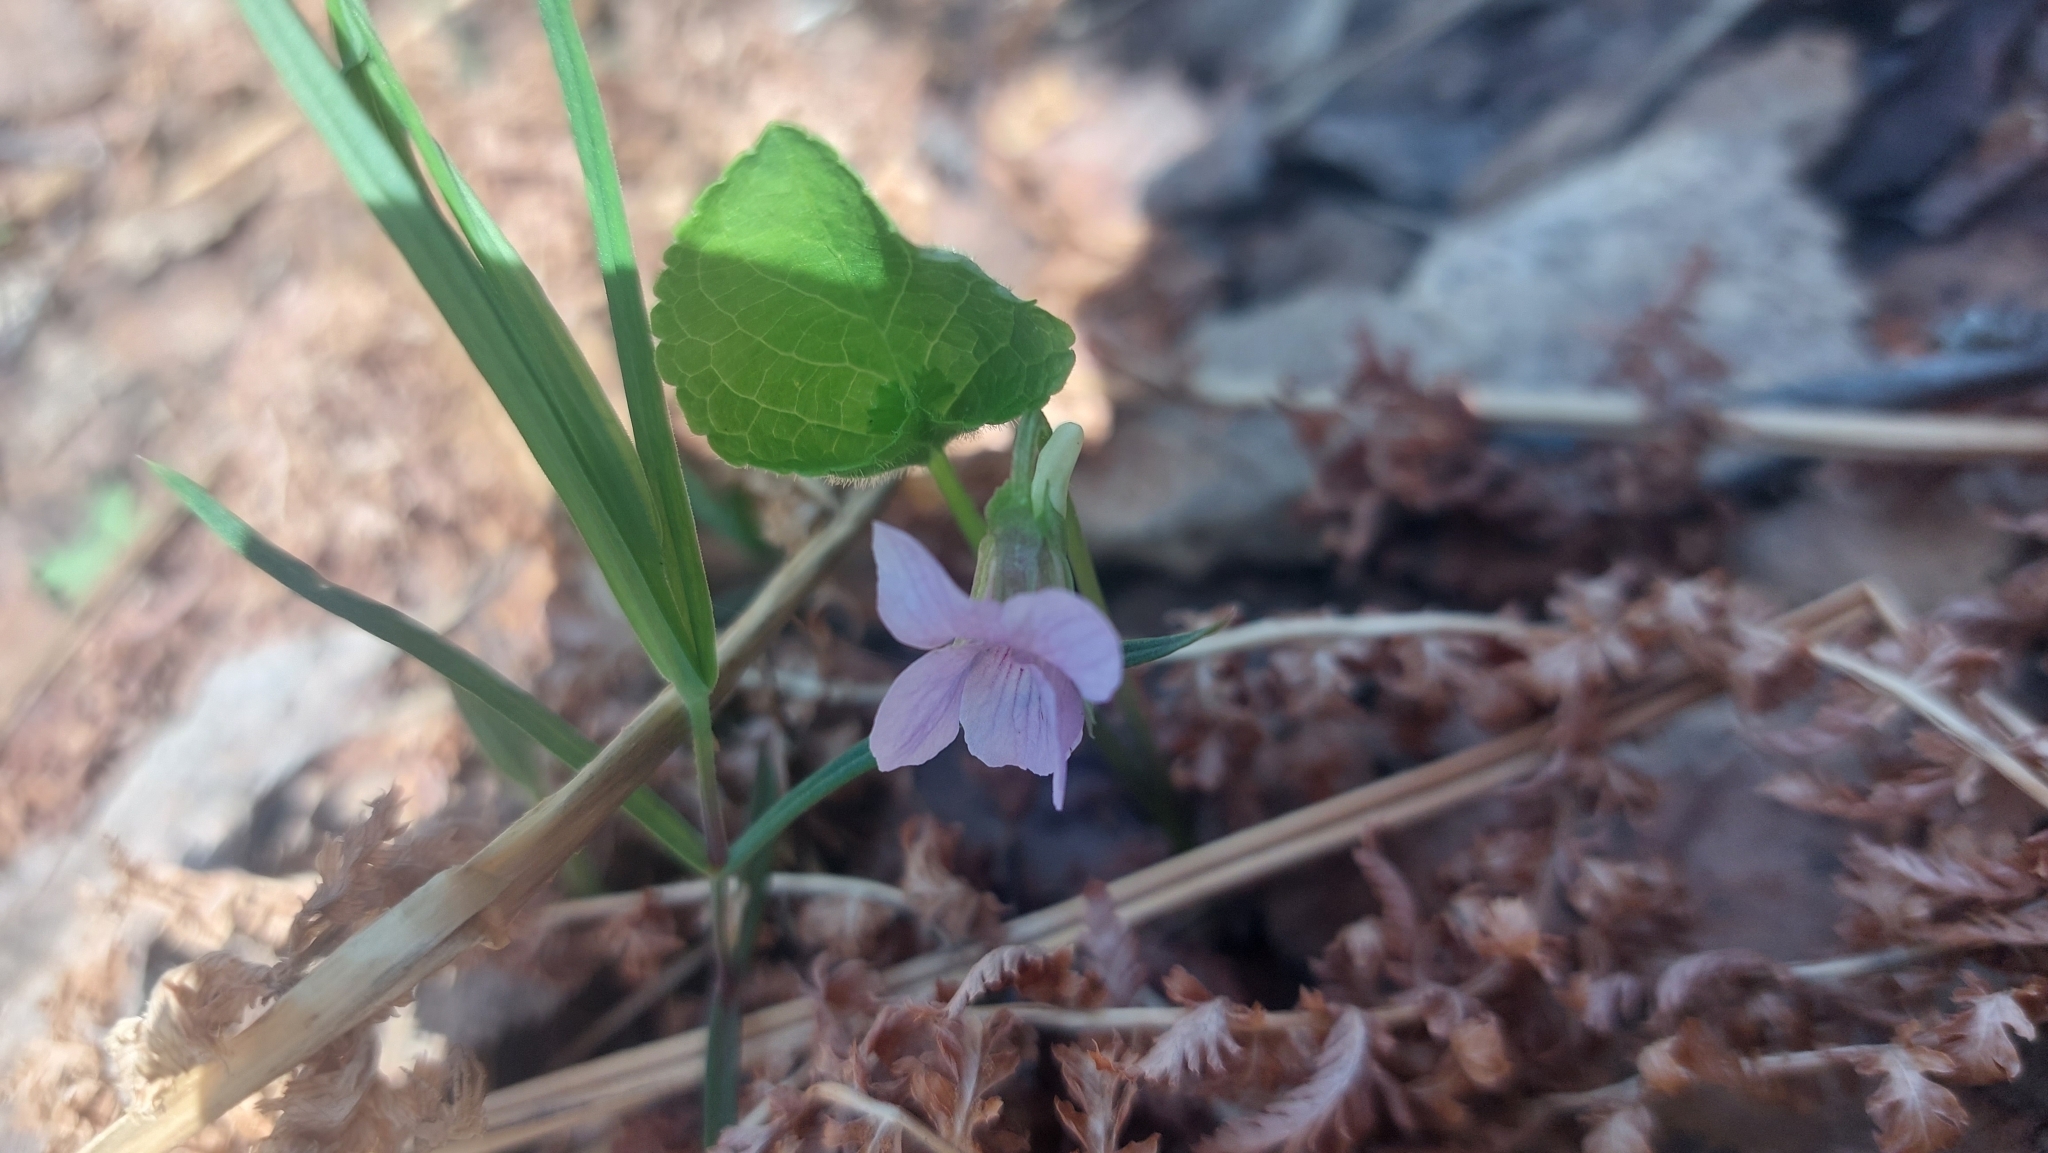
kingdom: Plantae
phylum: Tracheophyta
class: Magnoliopsida
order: Malpighiales
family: Violaceae
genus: Viola
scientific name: Viola mirabilis
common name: Wonder violet
